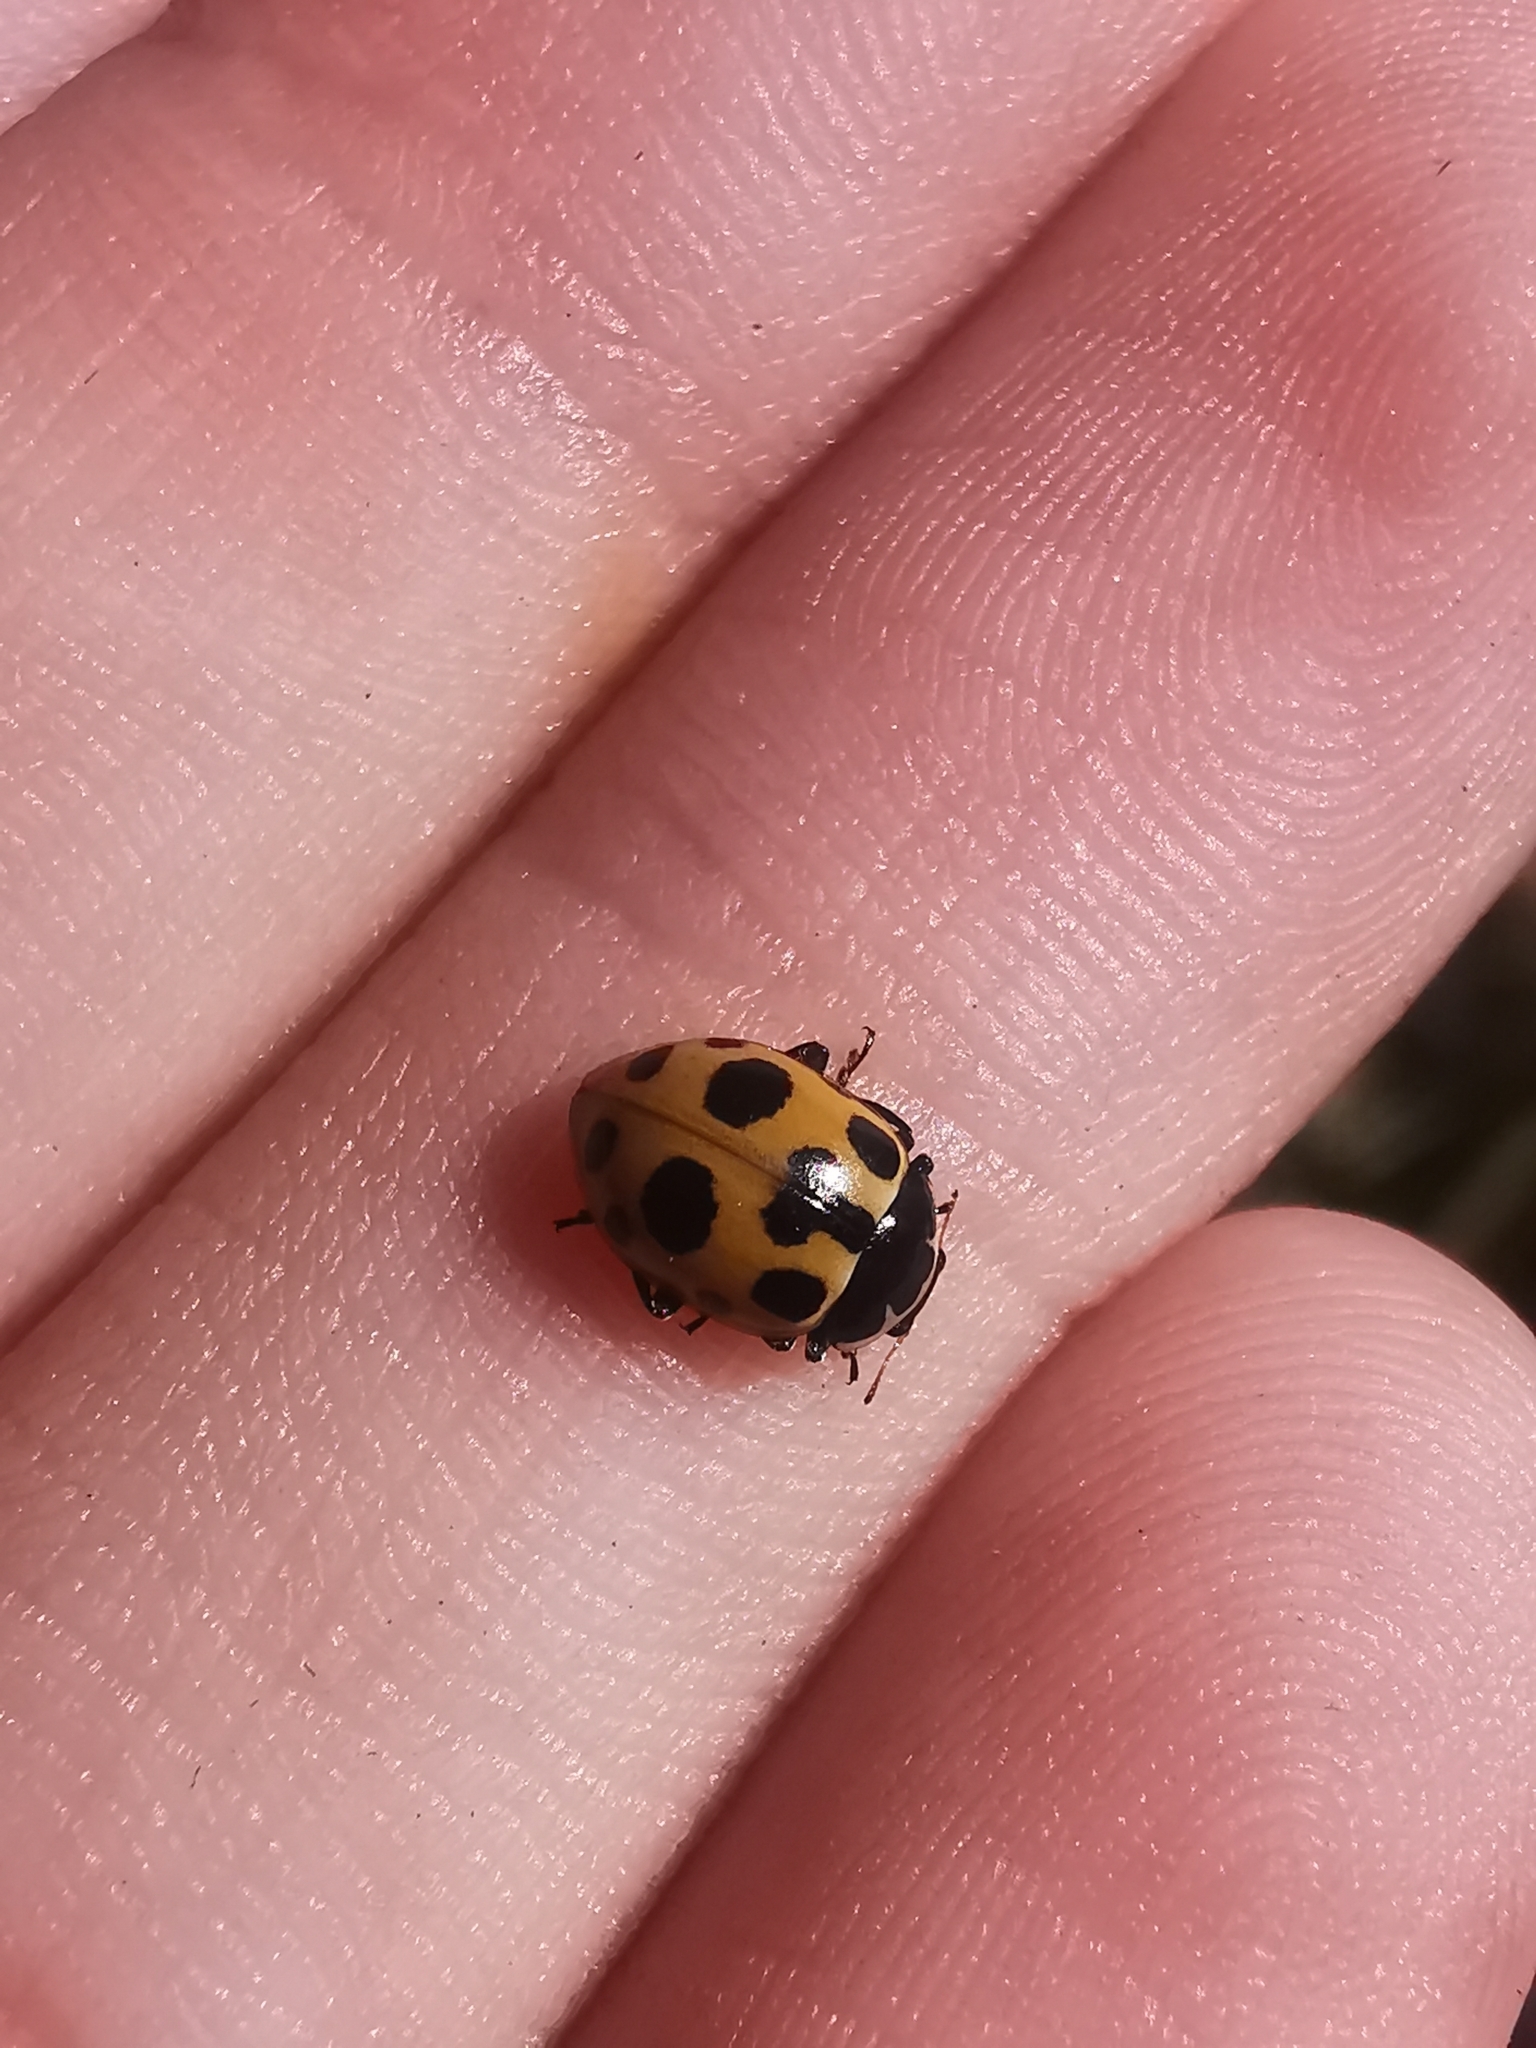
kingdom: Animalia
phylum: Arthropoda
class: Insecta
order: Coleoptera
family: Coccinellidae
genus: Ceratomegilla
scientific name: Ceratomegilla notata
